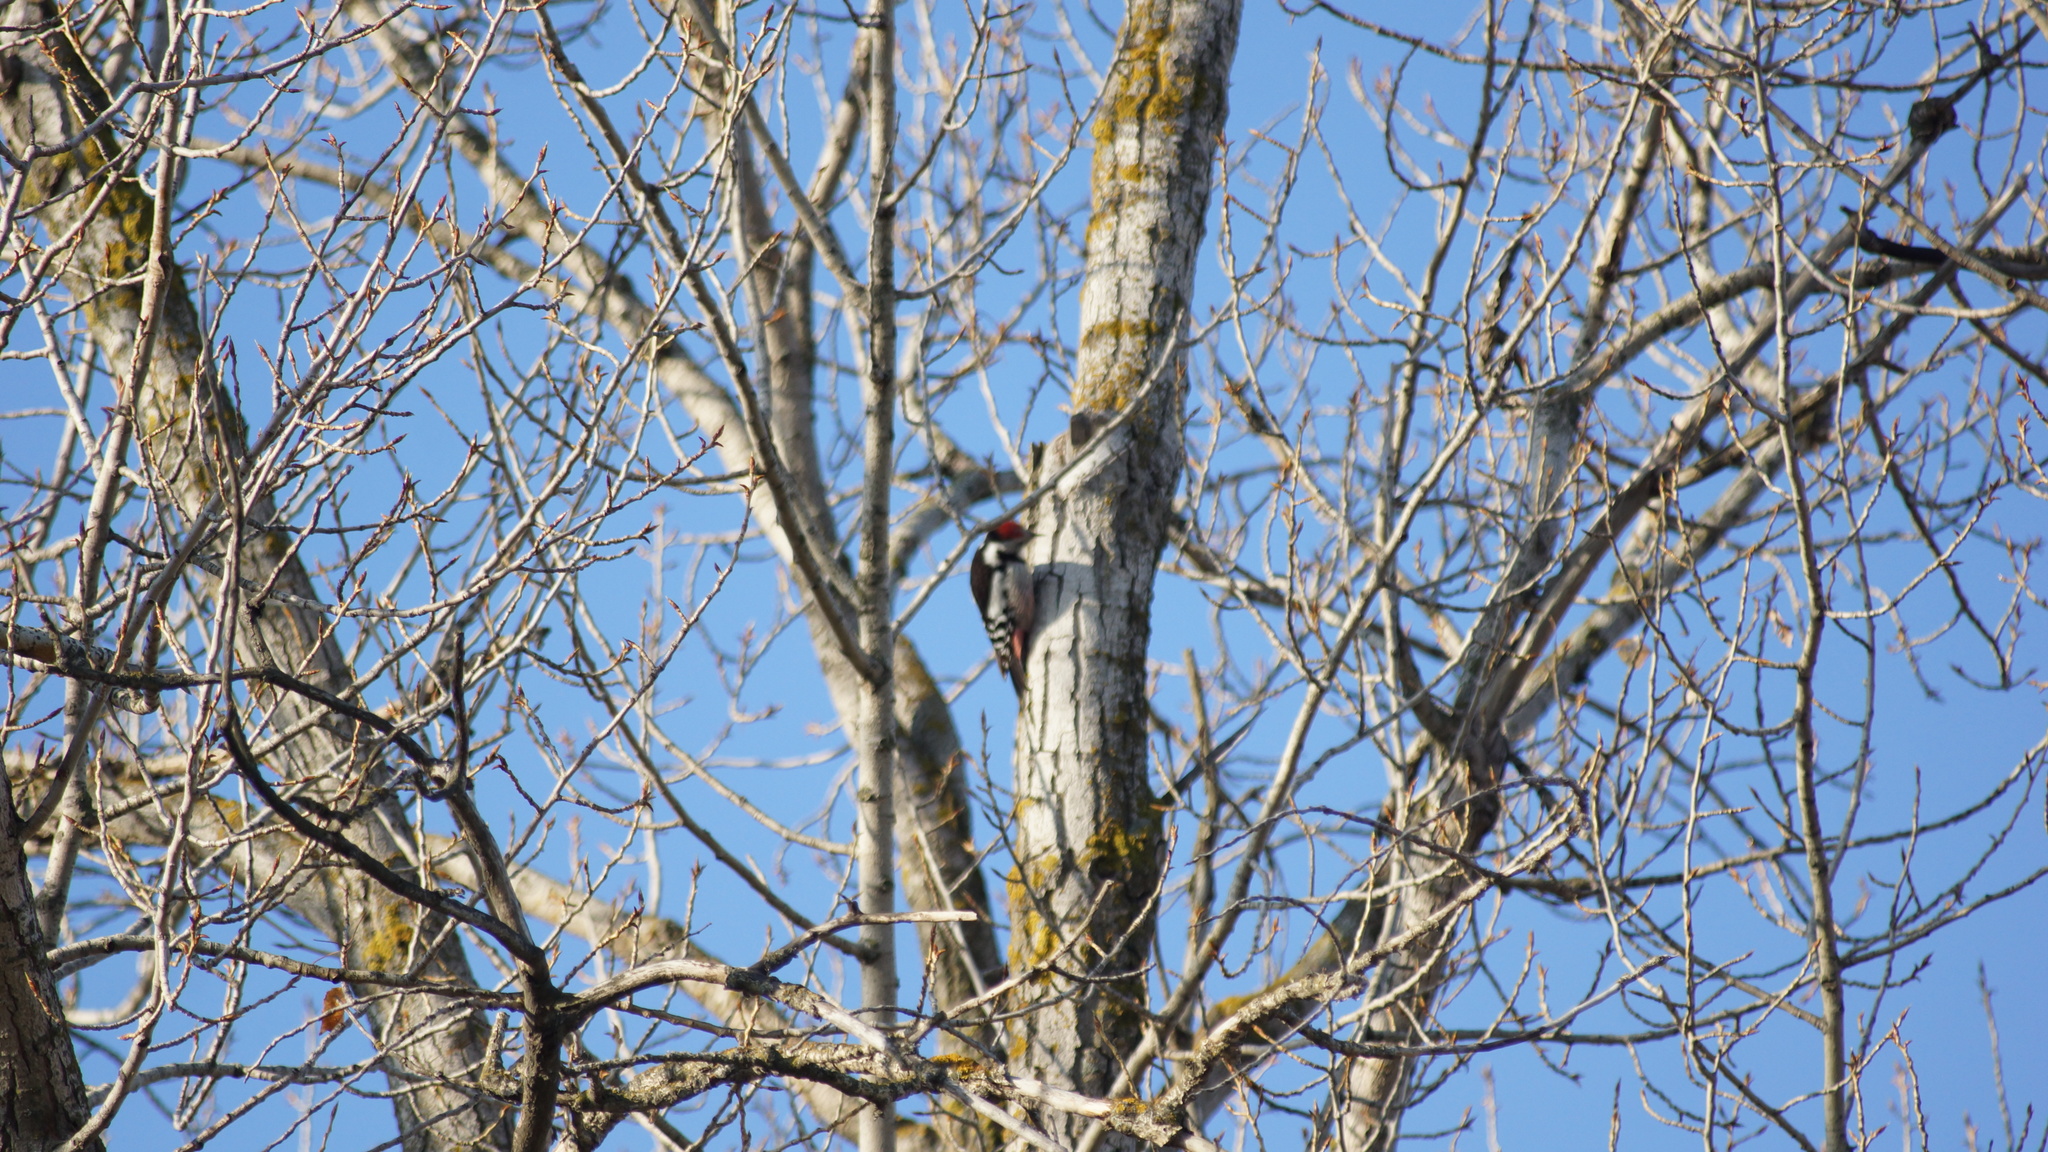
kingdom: Animalia
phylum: Chordata
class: Aves
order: Piciformes
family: Picidae
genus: Dendrocoptes
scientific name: Dendrocoptes medius
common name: Middle spotted woodpecker
